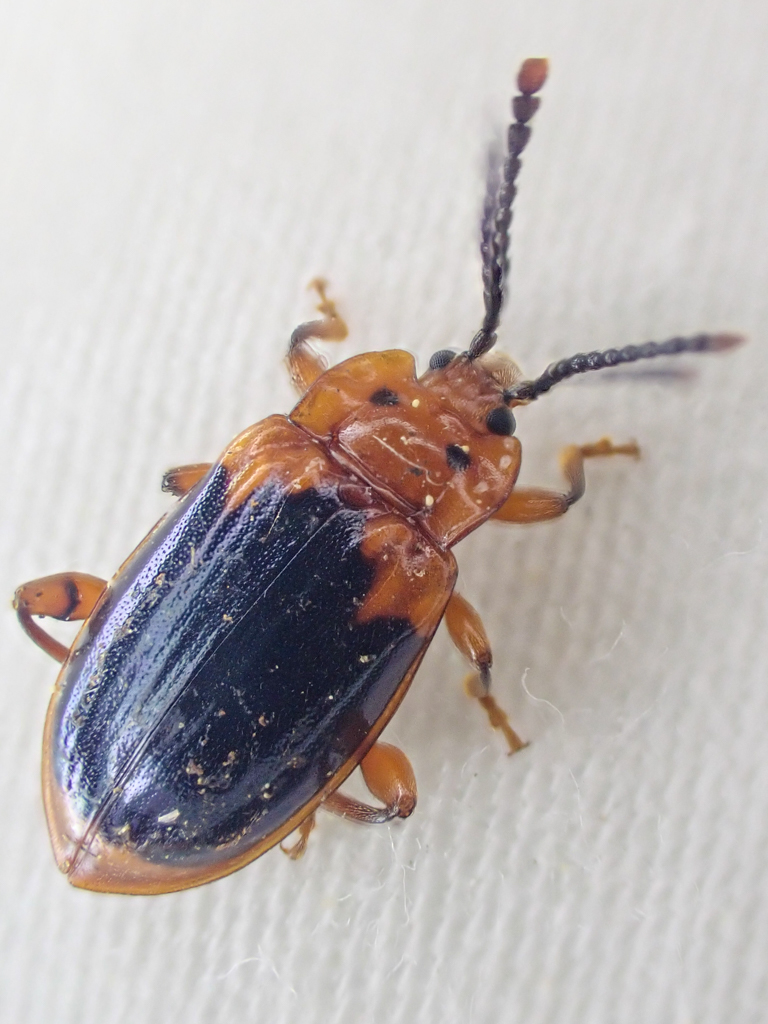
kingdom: Animalia
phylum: Arthropoda
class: Insecta
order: Coleoptera
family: Endomychidae
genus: Aphorista
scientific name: Aphorista laeta
